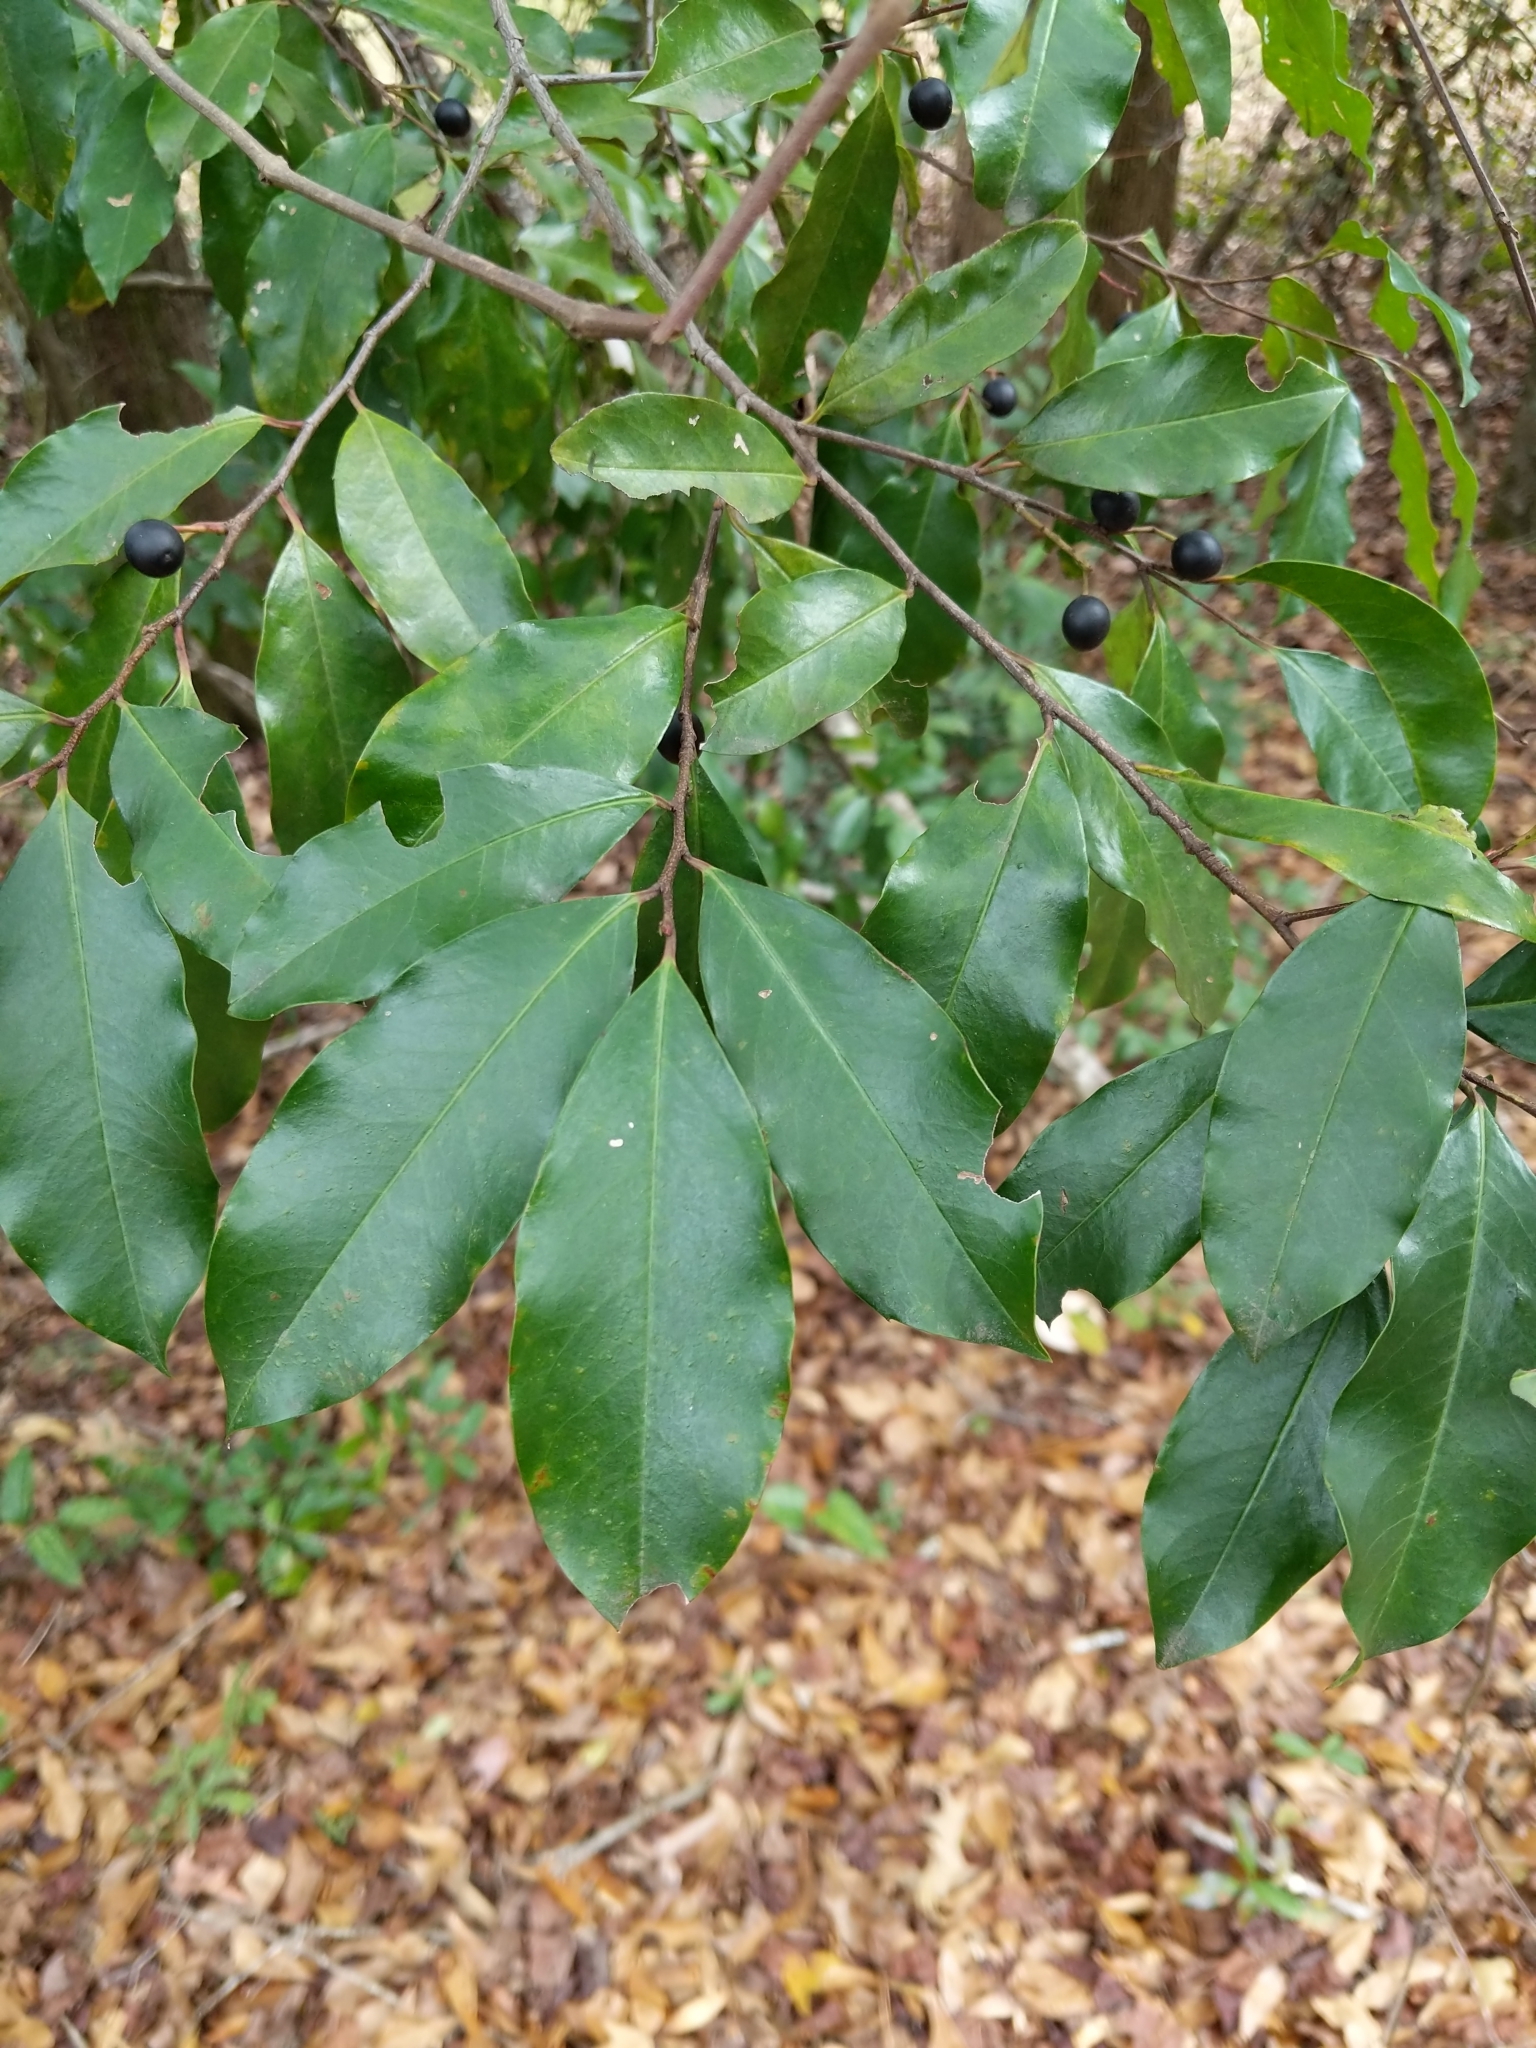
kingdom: Plantae
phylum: Tracheophyta
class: Magnoliopsida
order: Rosales
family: Rosaceae
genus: Prunus
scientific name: Prunus caroliniana
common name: Carolina laurel cherry
